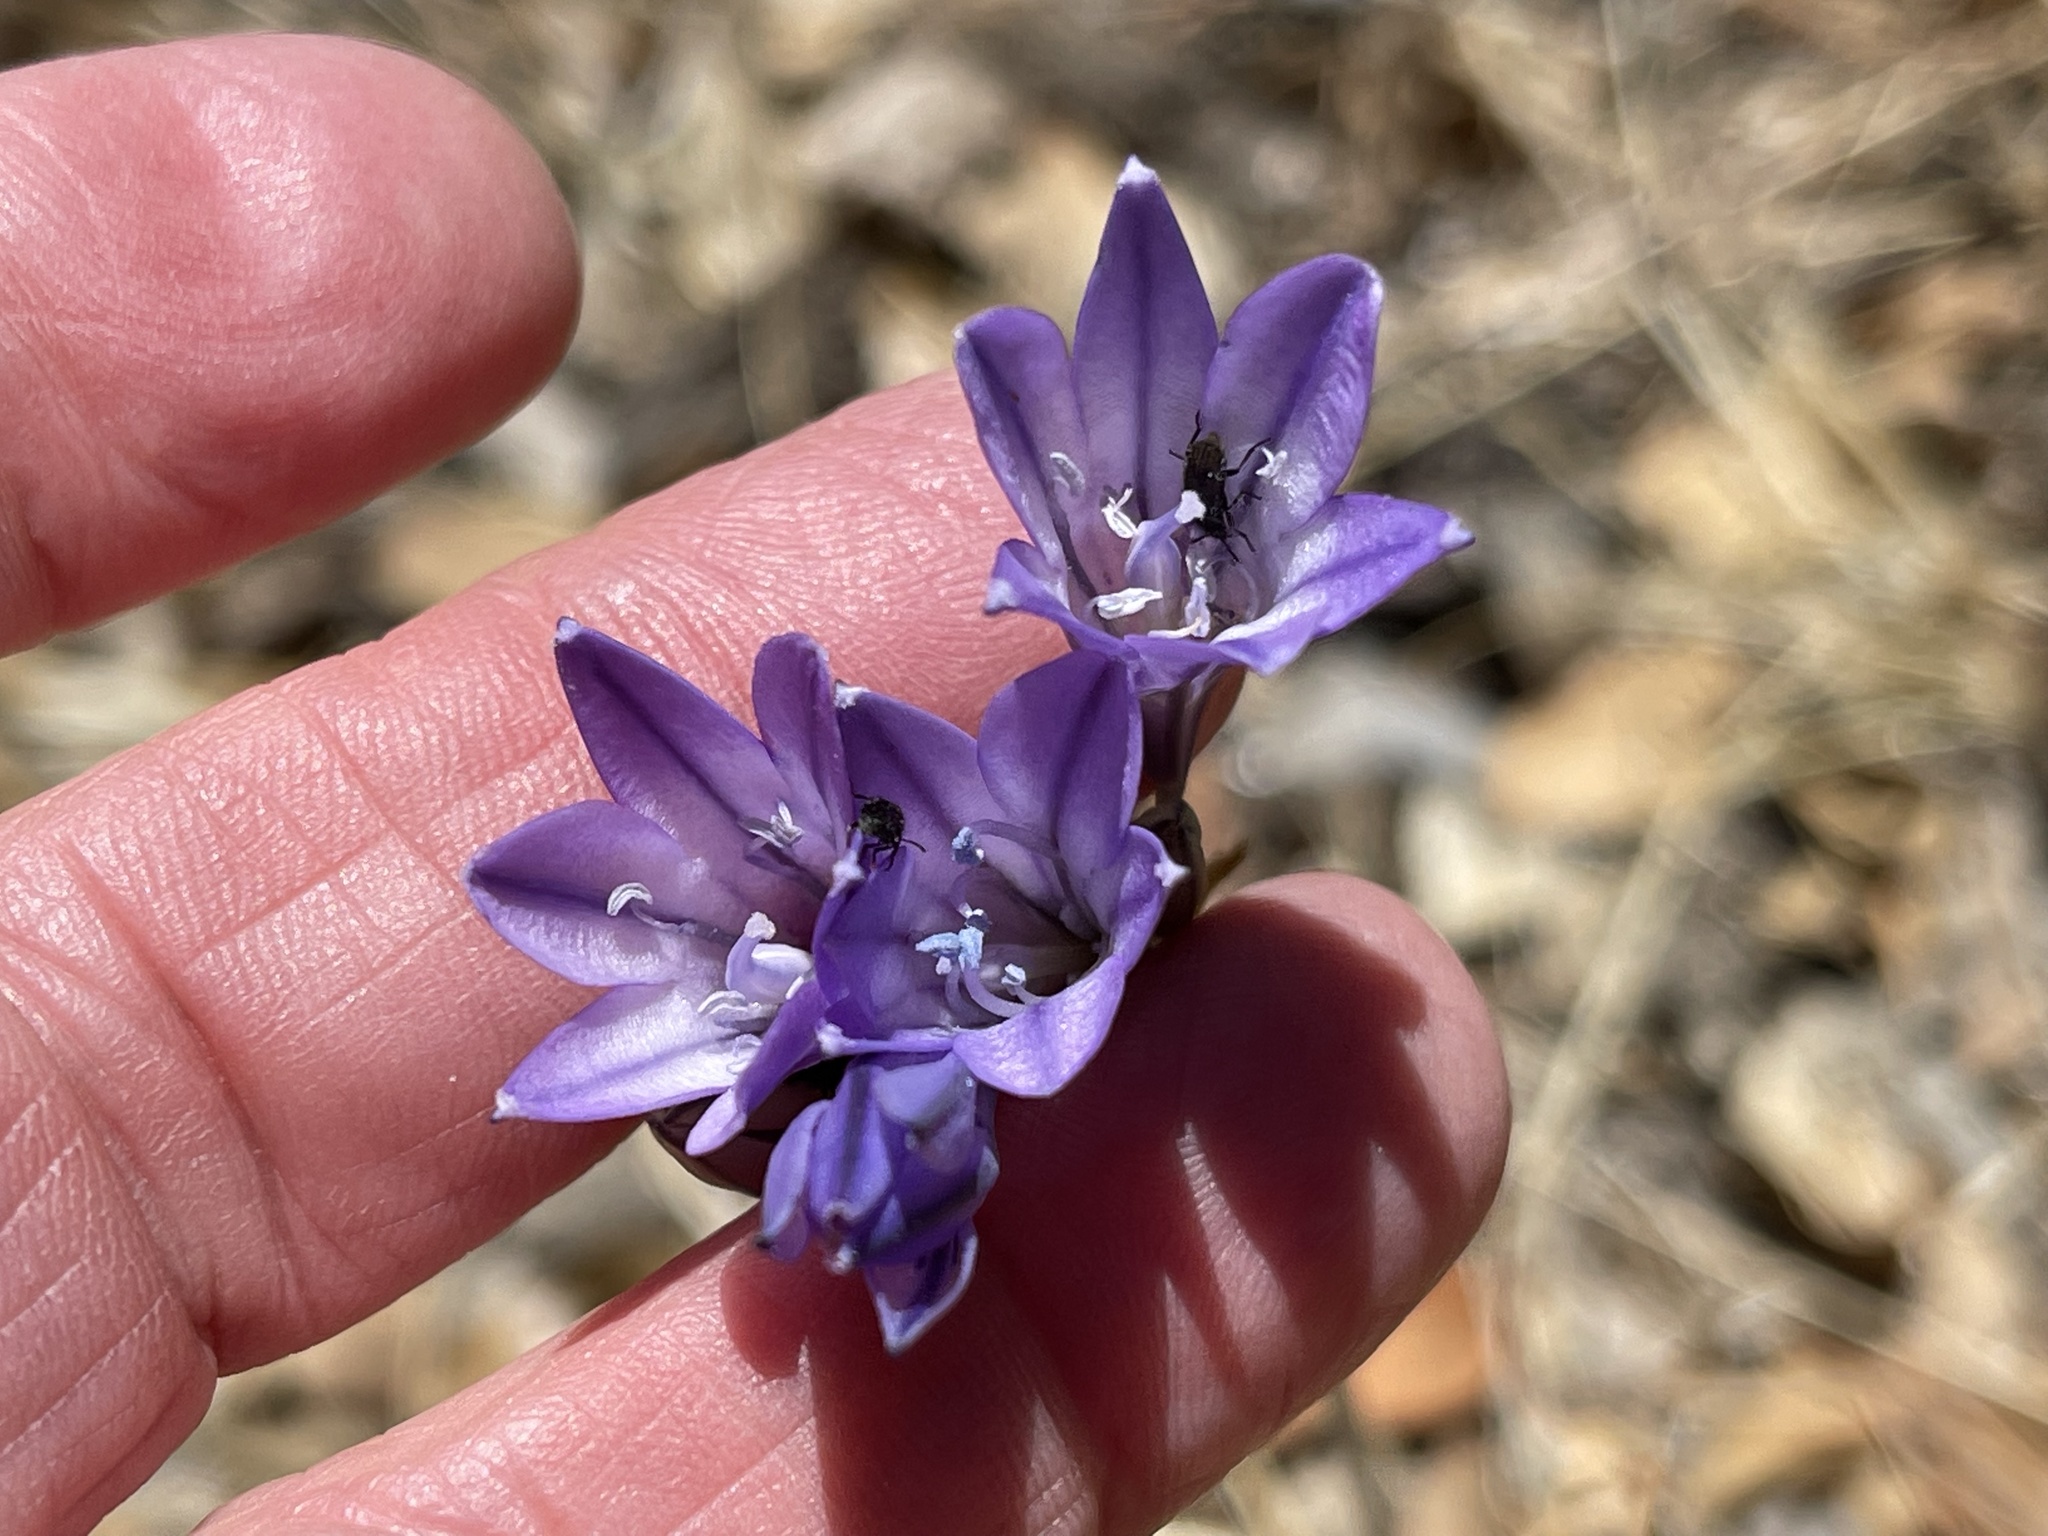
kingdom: Plantae
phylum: Tracheophyta
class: Liliopsida
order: Asparagales
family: Asparagaceae
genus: Triteleia
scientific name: Triteleia laxa
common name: Triplet-lily
